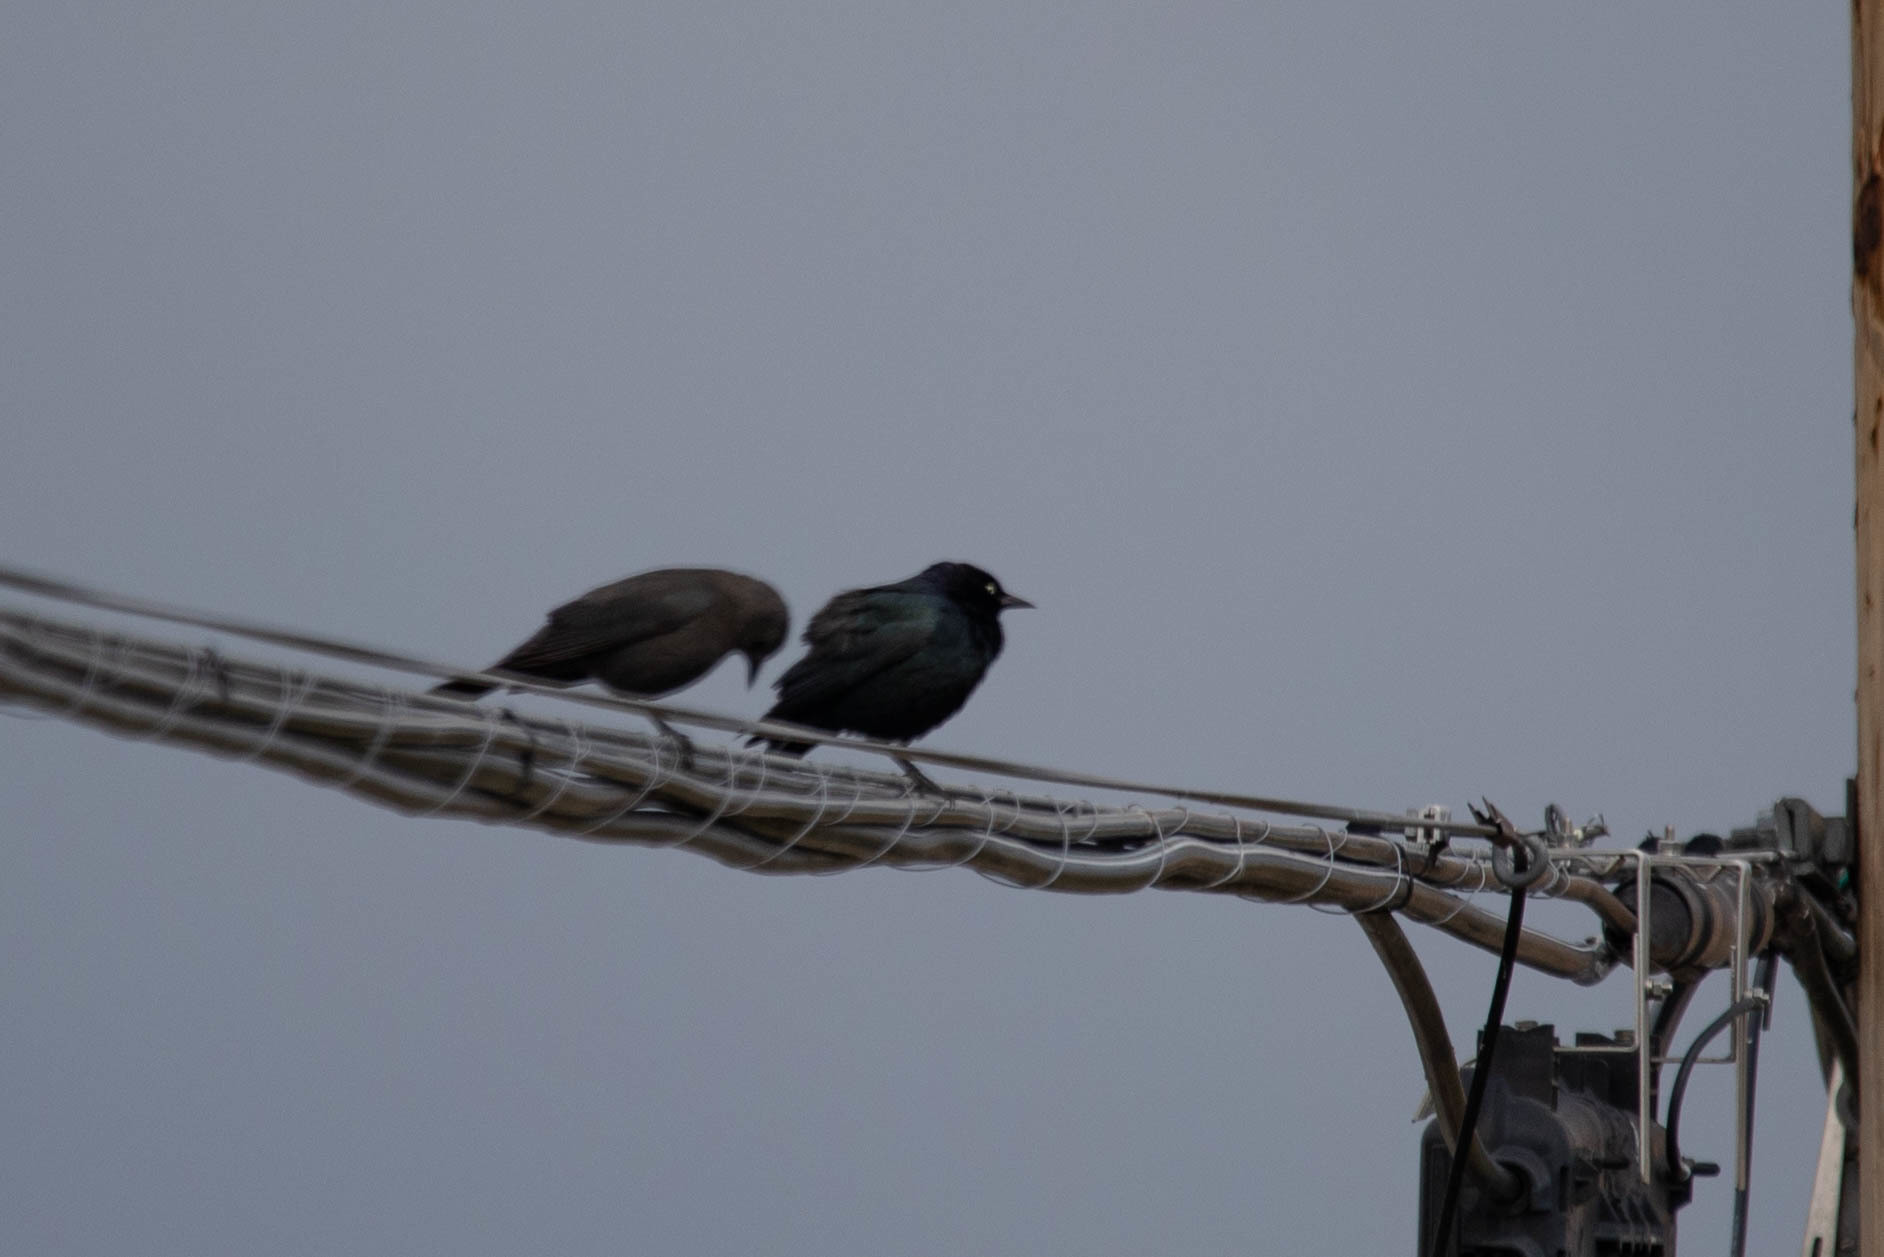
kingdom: Animalia
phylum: Chordata
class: Aves
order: Passeriformes
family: Icteridae
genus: Euphagus
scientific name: Euphagus cyanocephalus
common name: Brewer's blackbird
